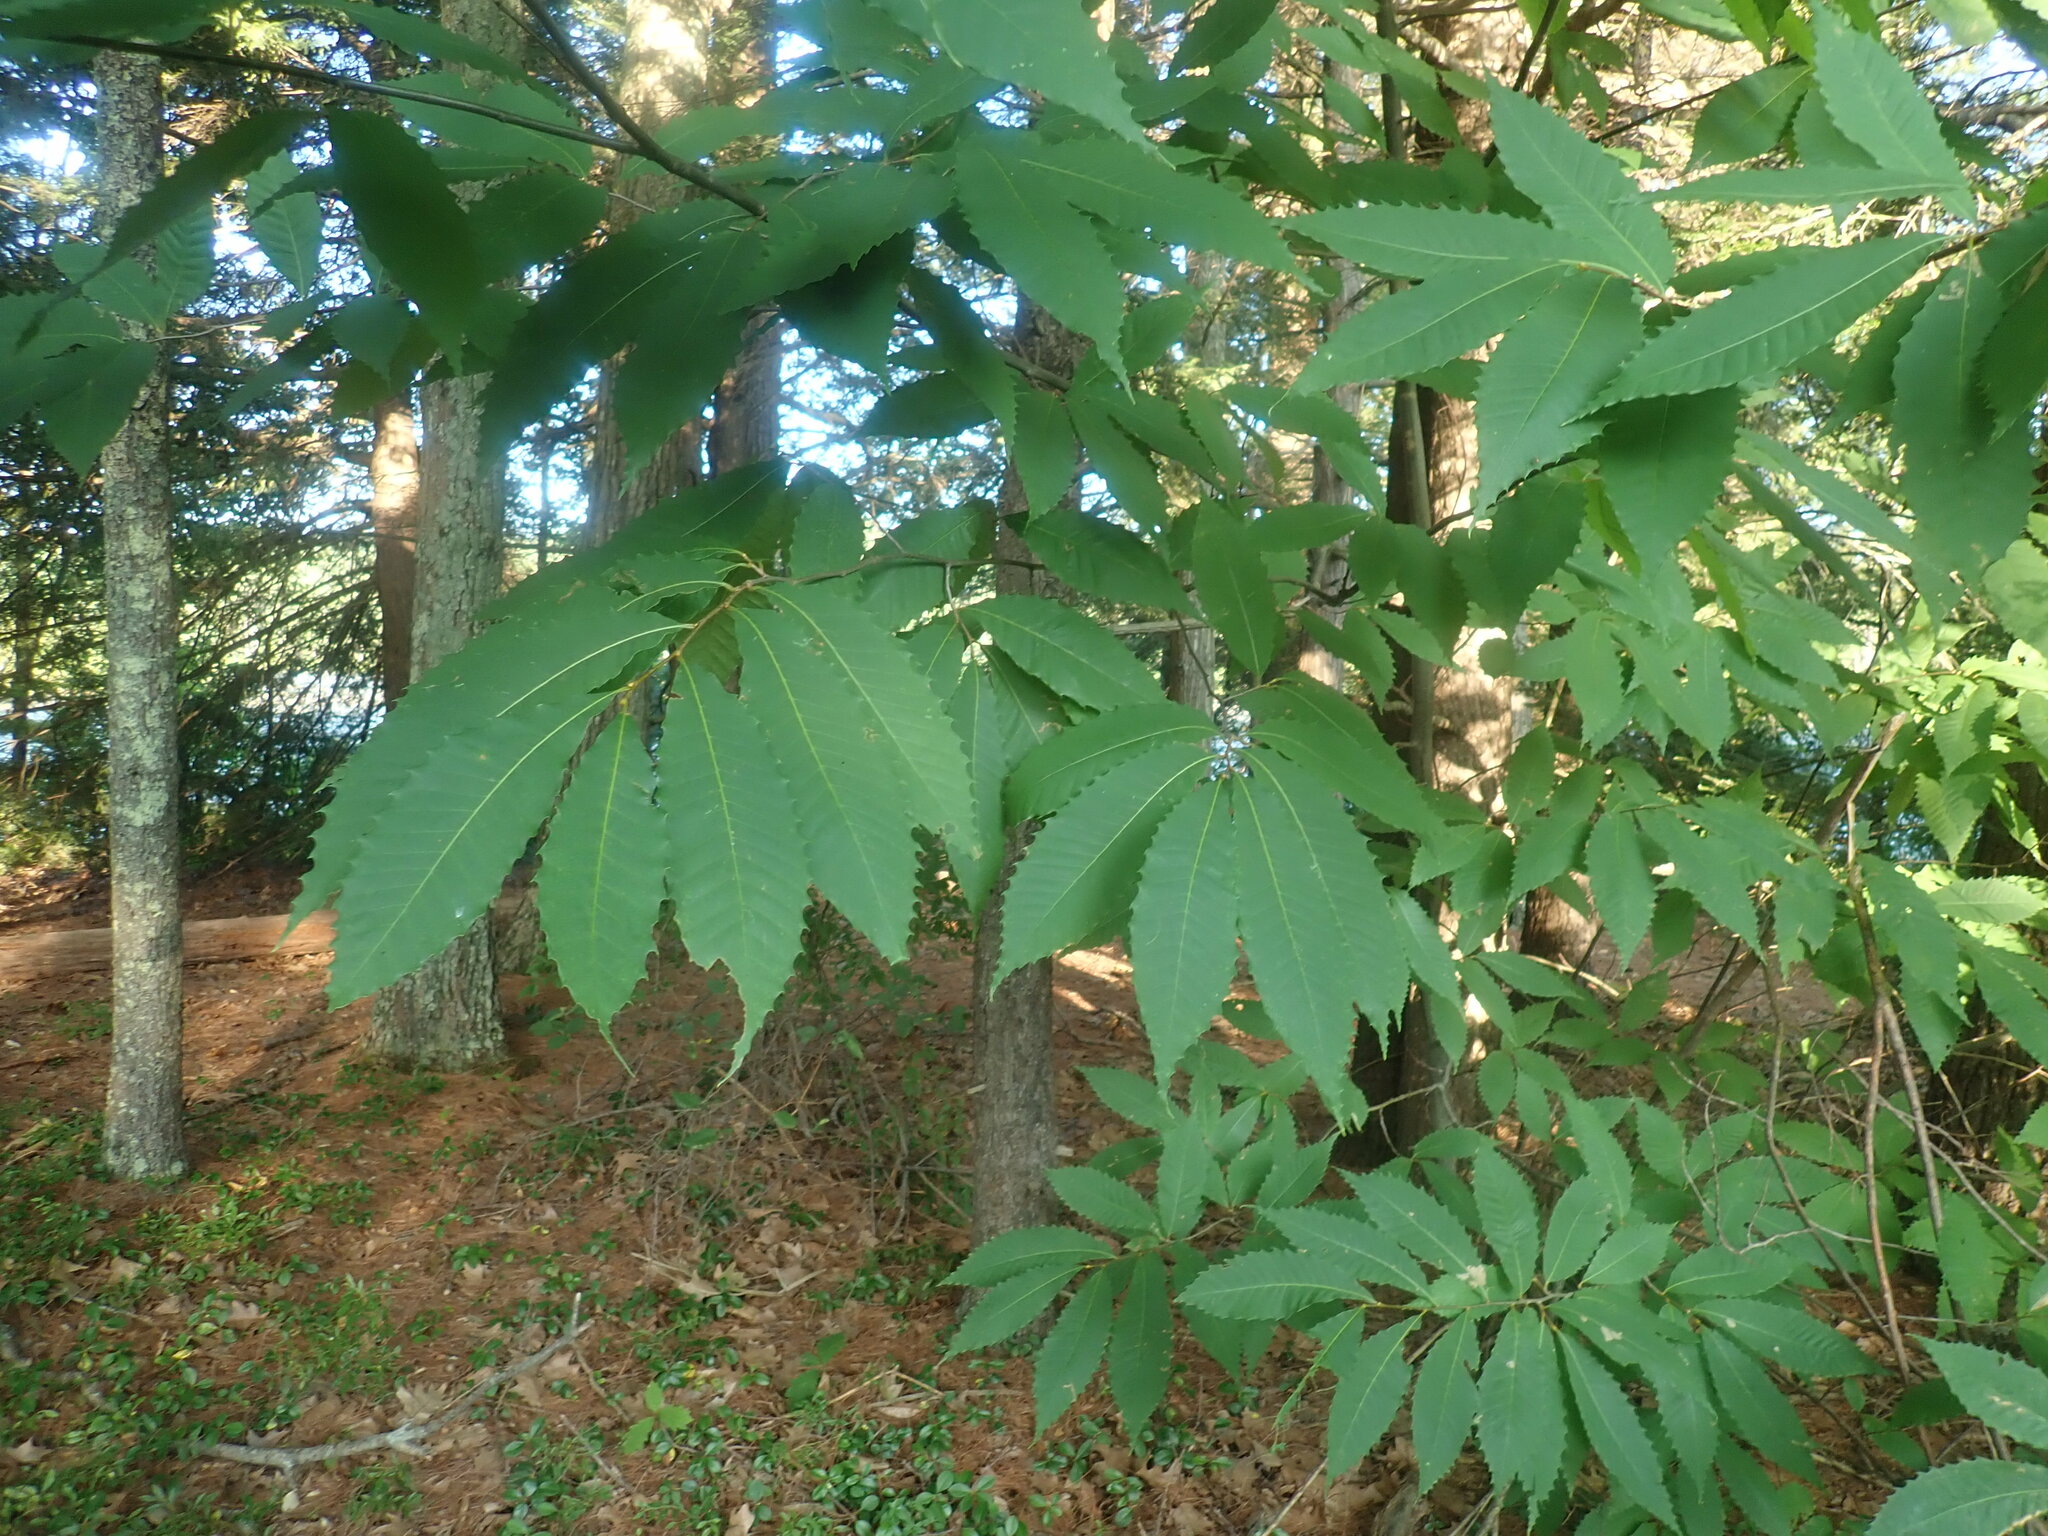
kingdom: Plantae
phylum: Tracheophyta
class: Magnoliopsida
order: Fagales
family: Fagaceae
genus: Castanea
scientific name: Castanea dentata
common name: American chestnut
